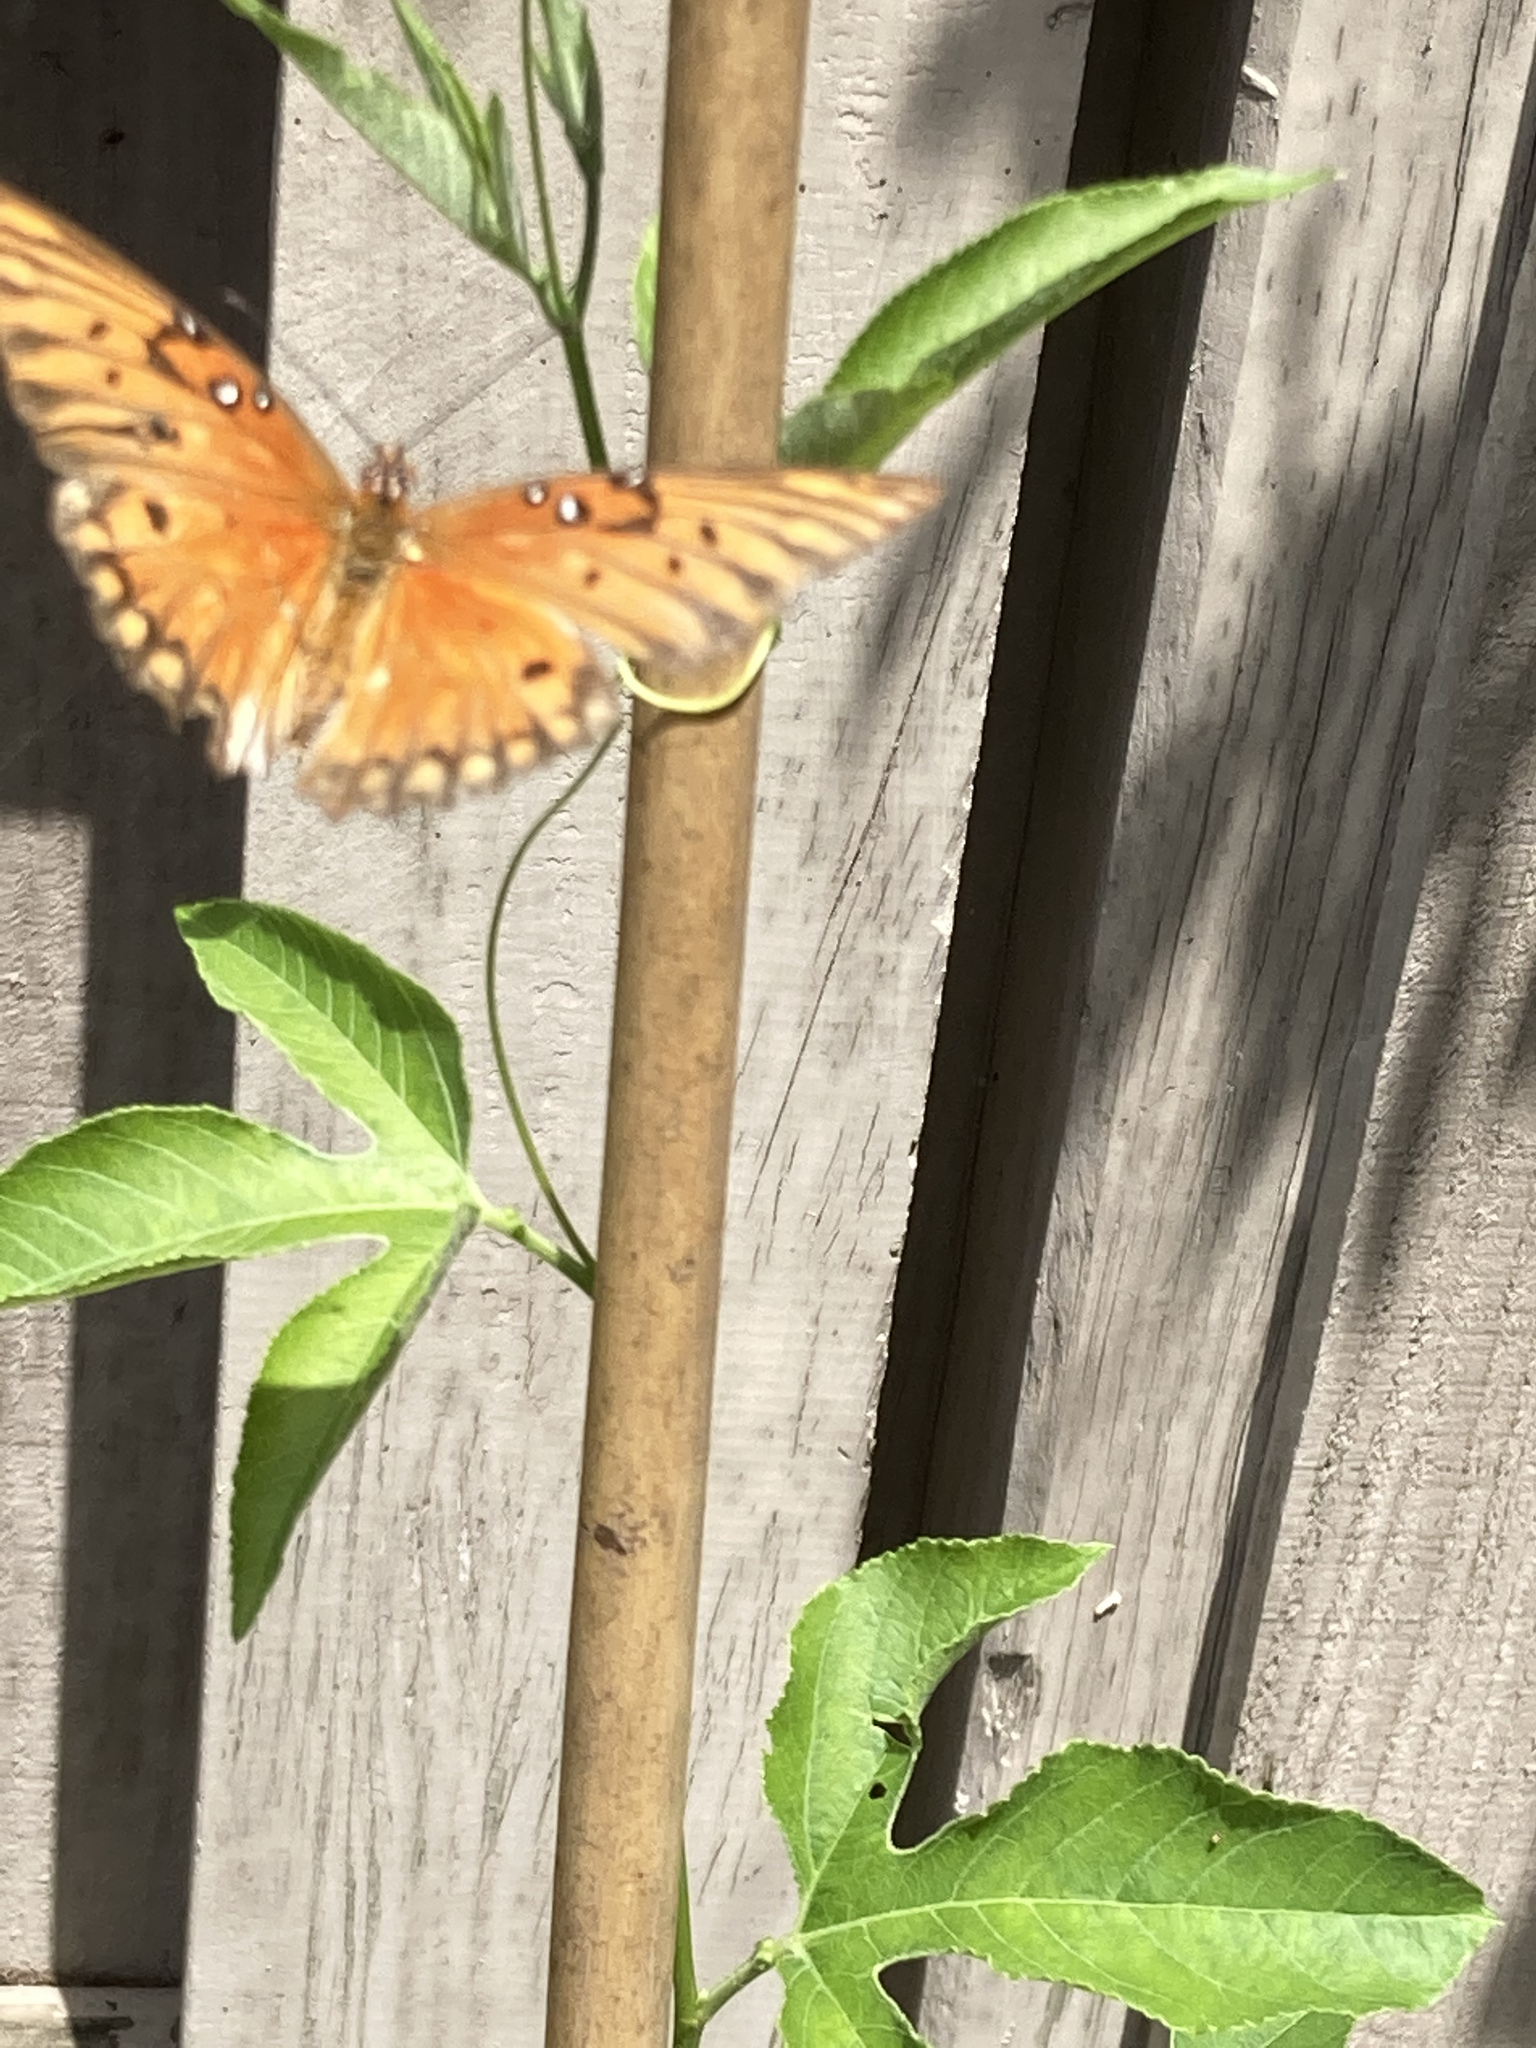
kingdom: Animalia
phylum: Arthropoda
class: Insecta
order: Lepidoptera
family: Nymphalidae
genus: Dione
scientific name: Dione vanillae
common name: Gulf fritillary
